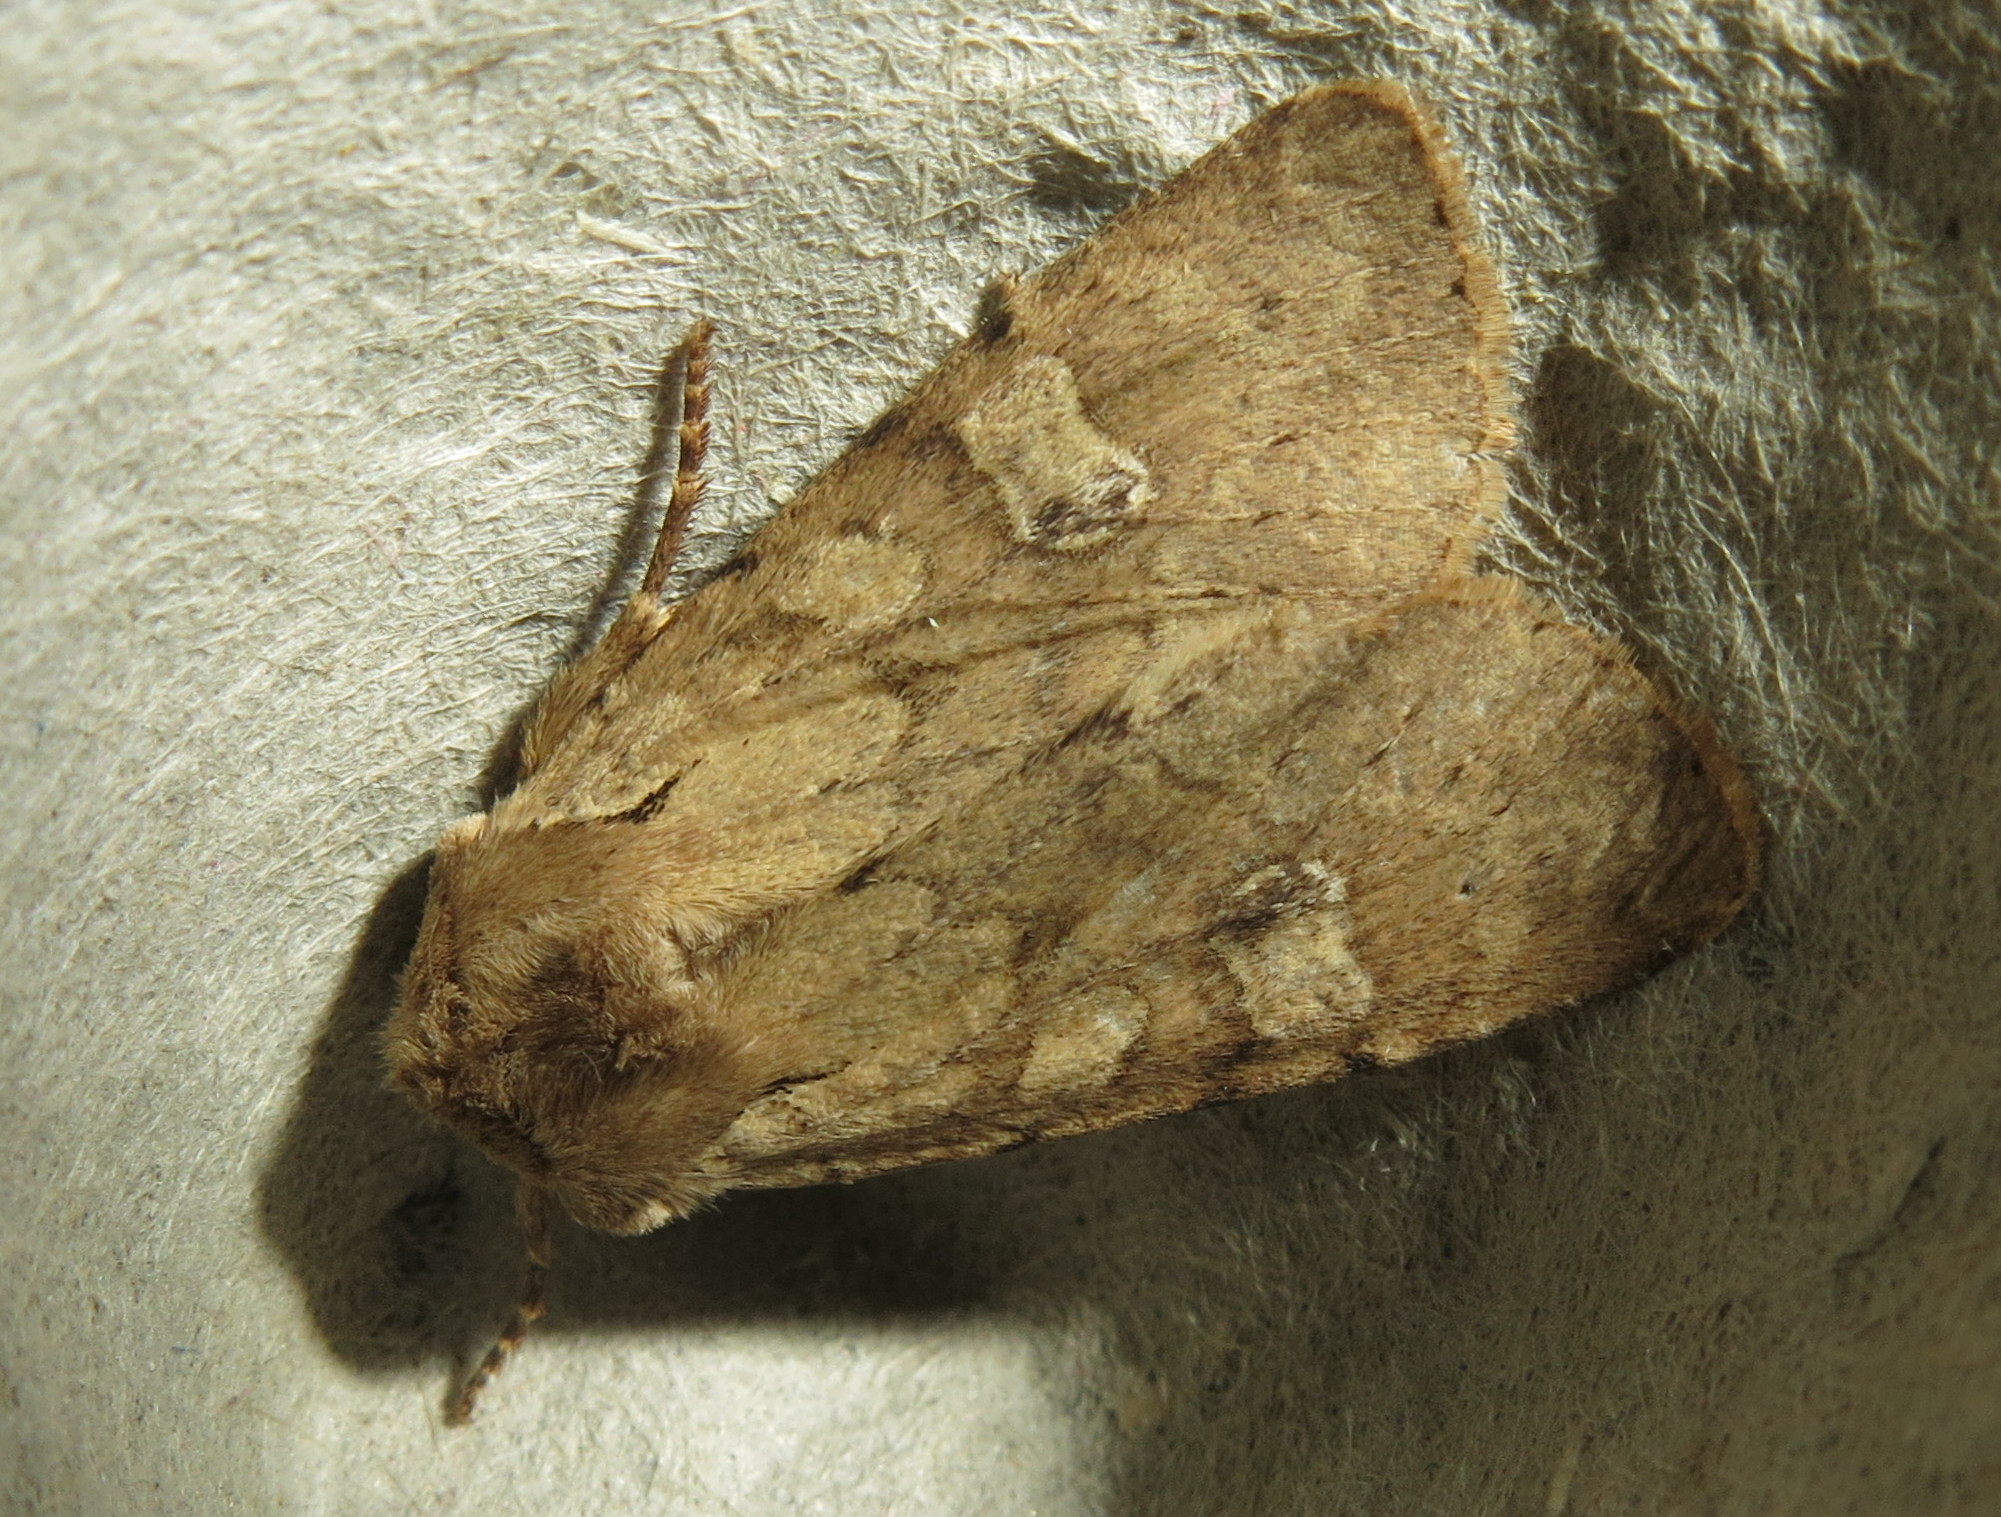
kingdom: Animalia
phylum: Arthropoda
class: Insecta
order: Lepidoptera
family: Noctuidae
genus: Apamea
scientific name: Apamea sordens
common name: Rustic shoulder-knot
